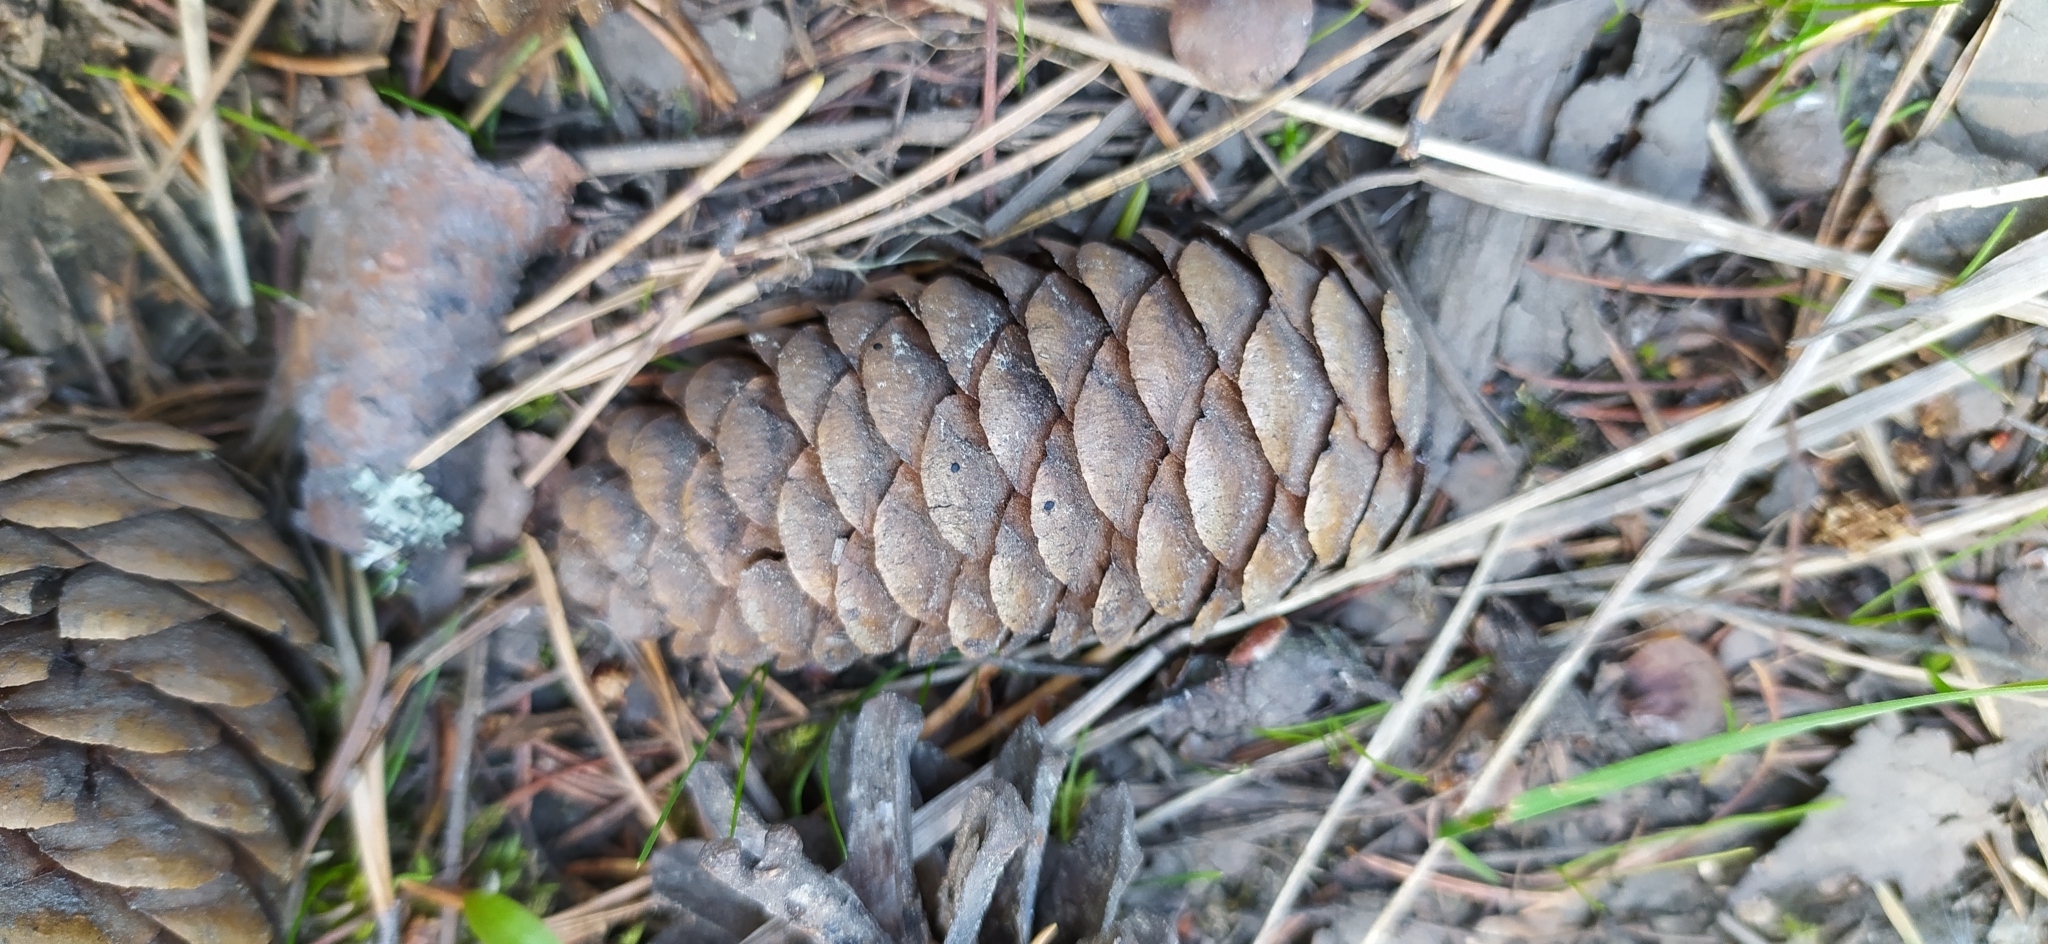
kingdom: Plantae
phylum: Tracheophyta
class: Pinopsida
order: Pinales
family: Pinaceae
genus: Picea
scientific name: Picea obovata
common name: Siberian spruce
